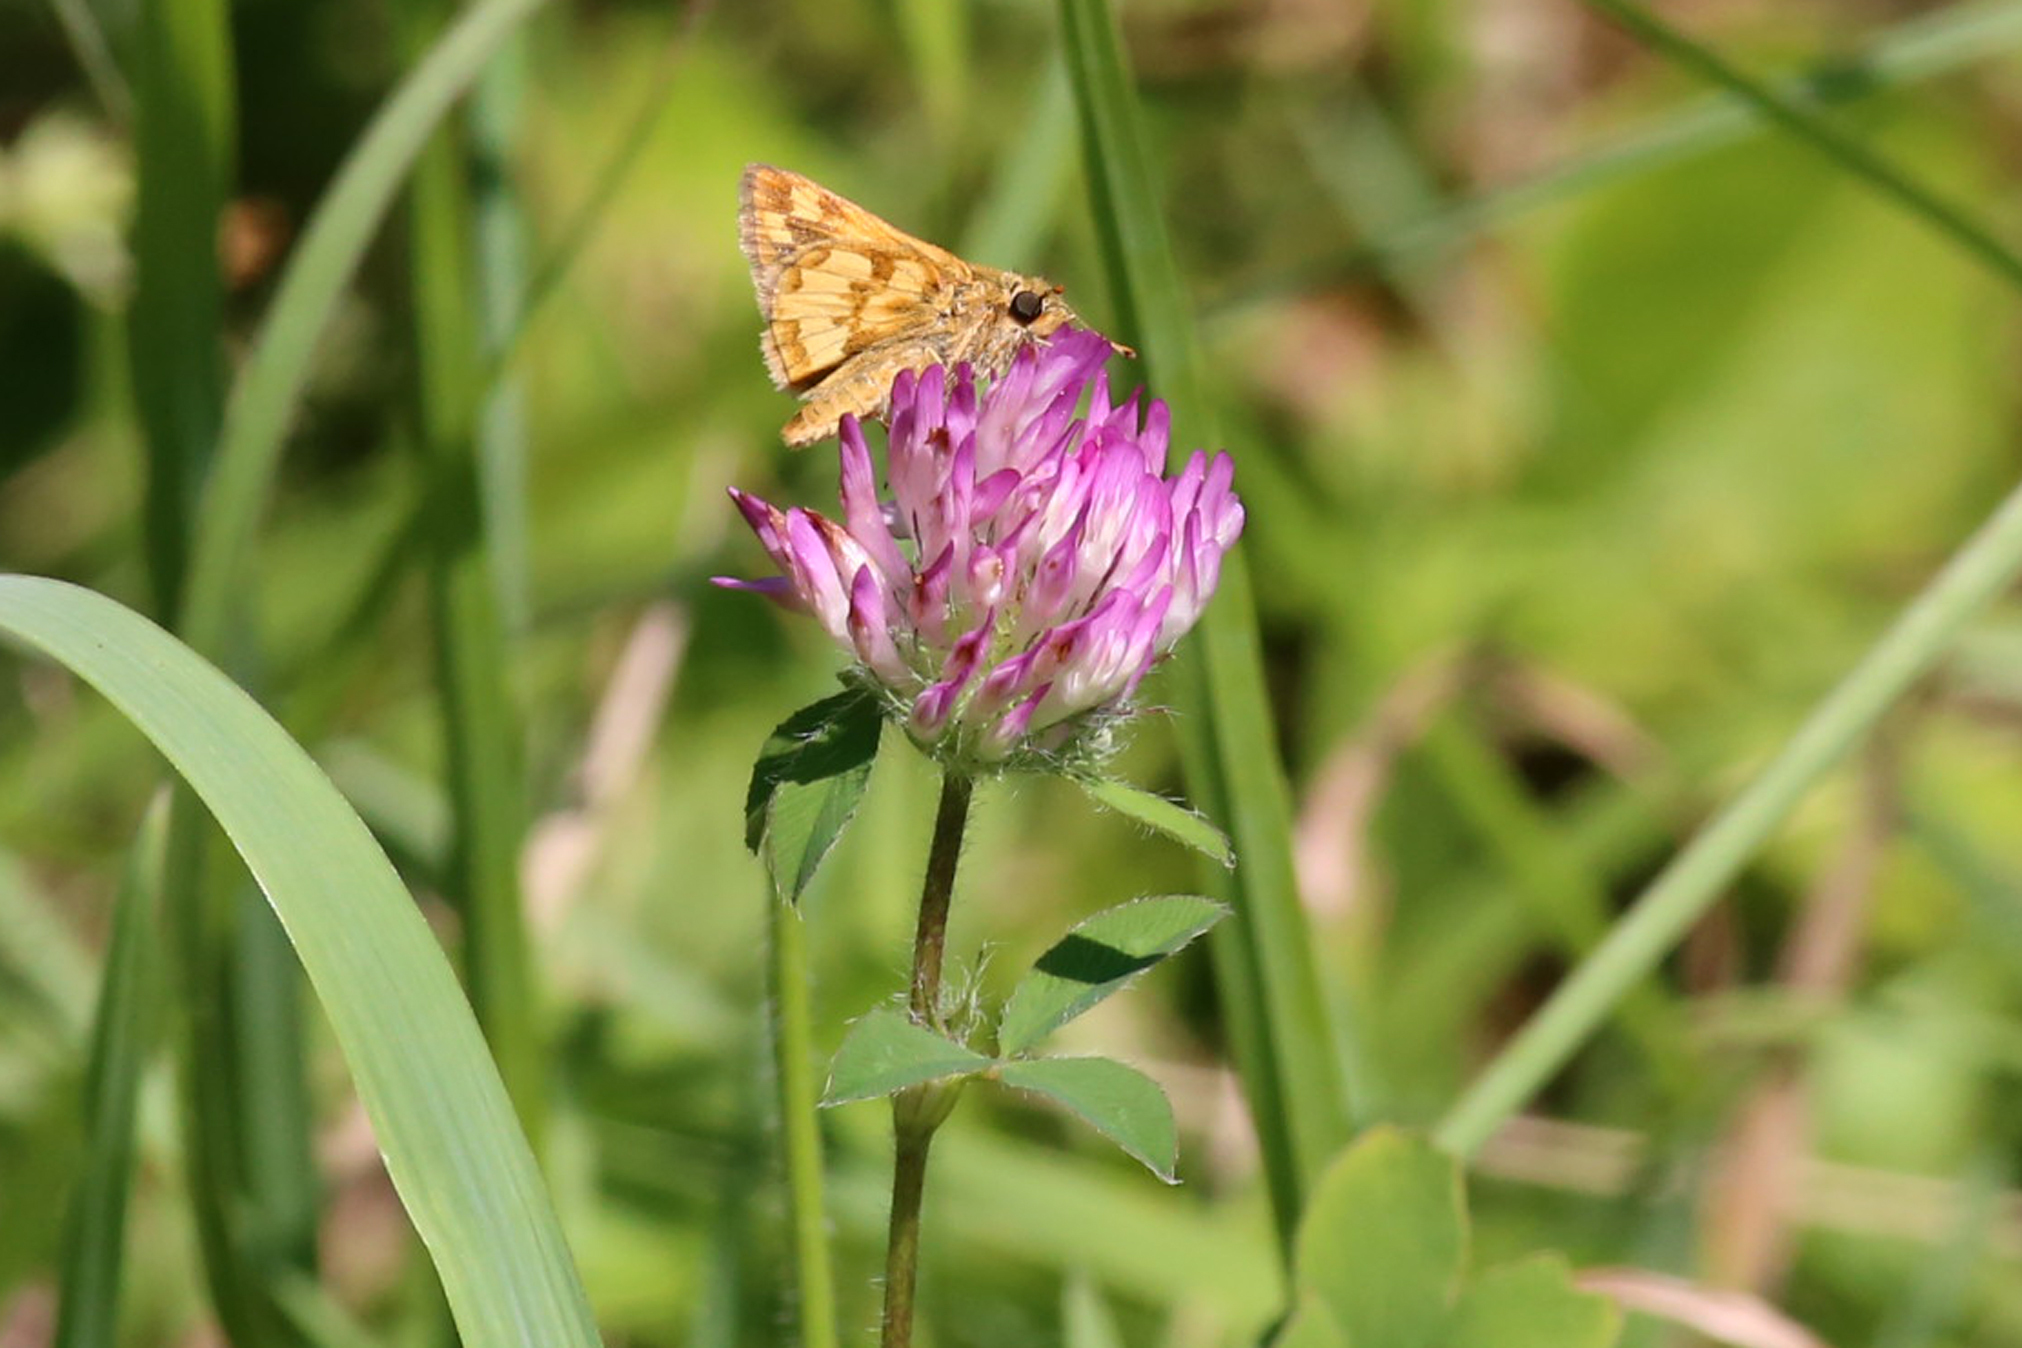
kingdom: Plantae
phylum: Tracheophyta
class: Magnoliopsida
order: Fabales
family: Fabaceae
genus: Trifolium
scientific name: Trifolium pratense
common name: Red clover
